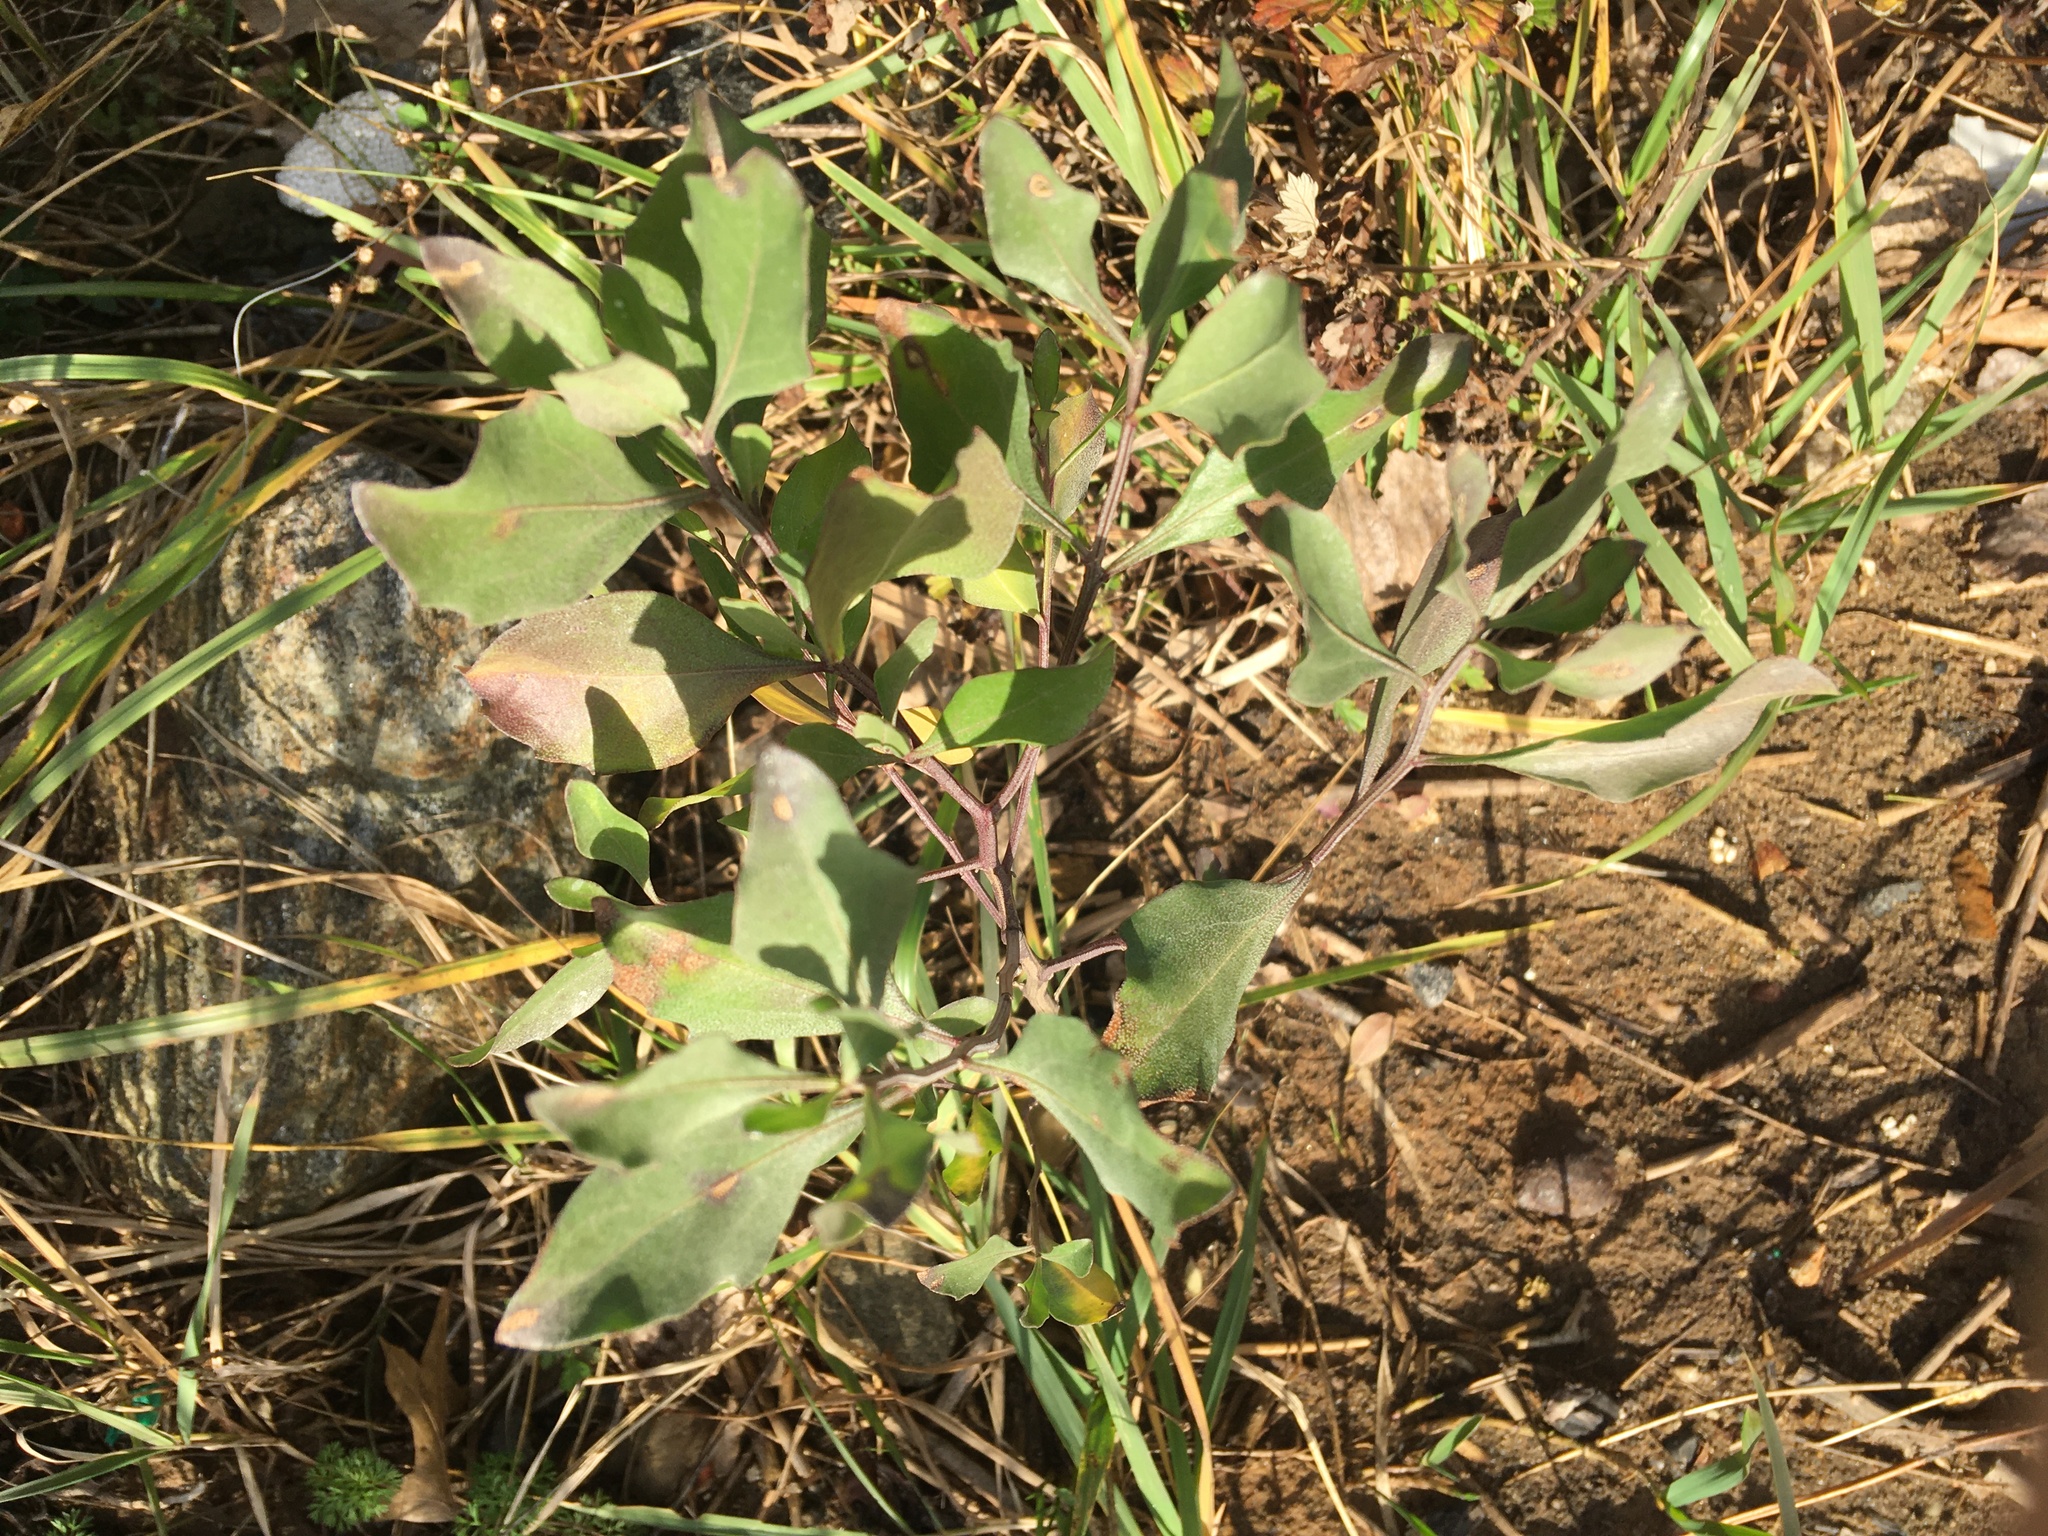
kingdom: Plantae
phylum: Tracheophyta
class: Magnoliopsida
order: Asterales
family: Asteraceae
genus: Baccharis
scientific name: Baccharis halimifolia
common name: Eastern baccharis
